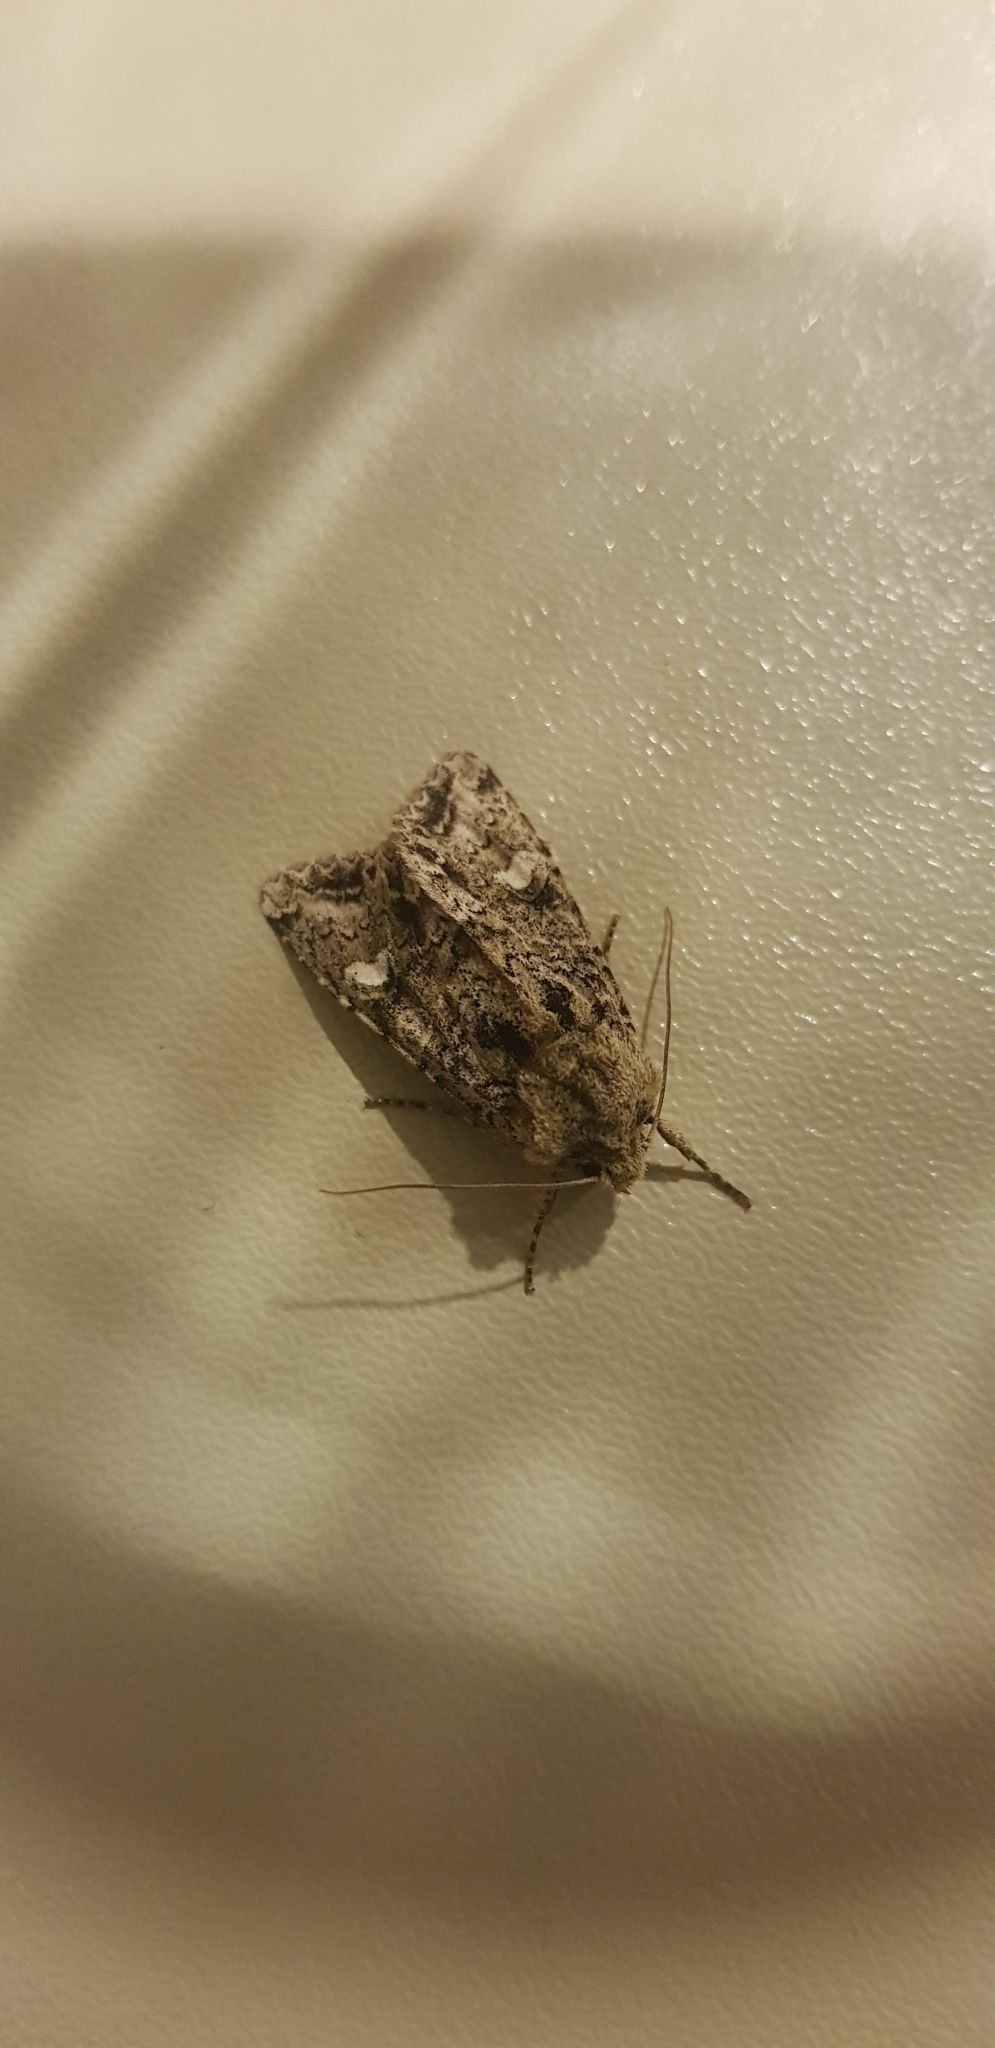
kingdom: Animalia
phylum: Arthropoda
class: Insecta
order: Lepidoptera
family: Noctuidae
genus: Ichneutica
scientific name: Ichneutica
